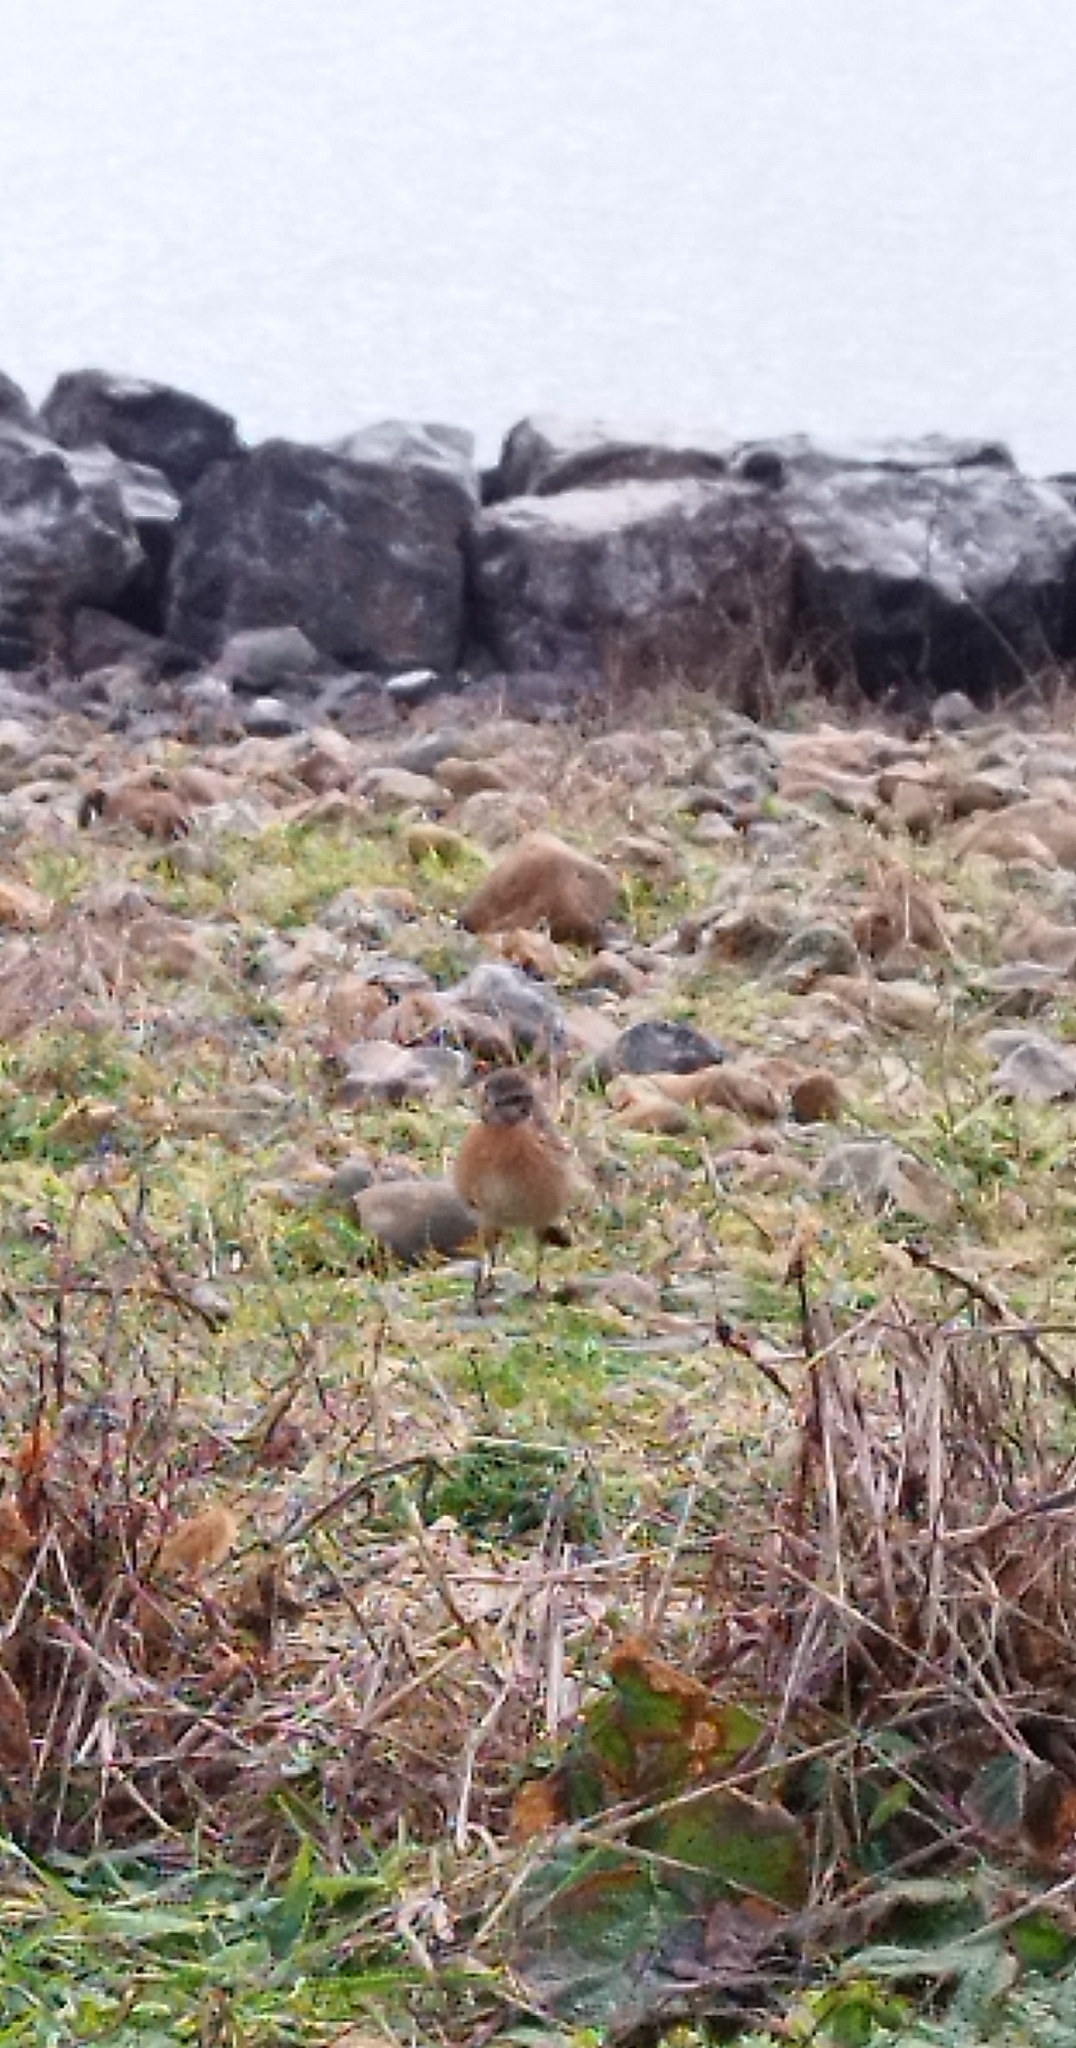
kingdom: Animalia
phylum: Chordata
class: Aves
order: Passeriformes
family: Muscicapidae
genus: Saxicola
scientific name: Saxicola rubicola
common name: European stonechat
